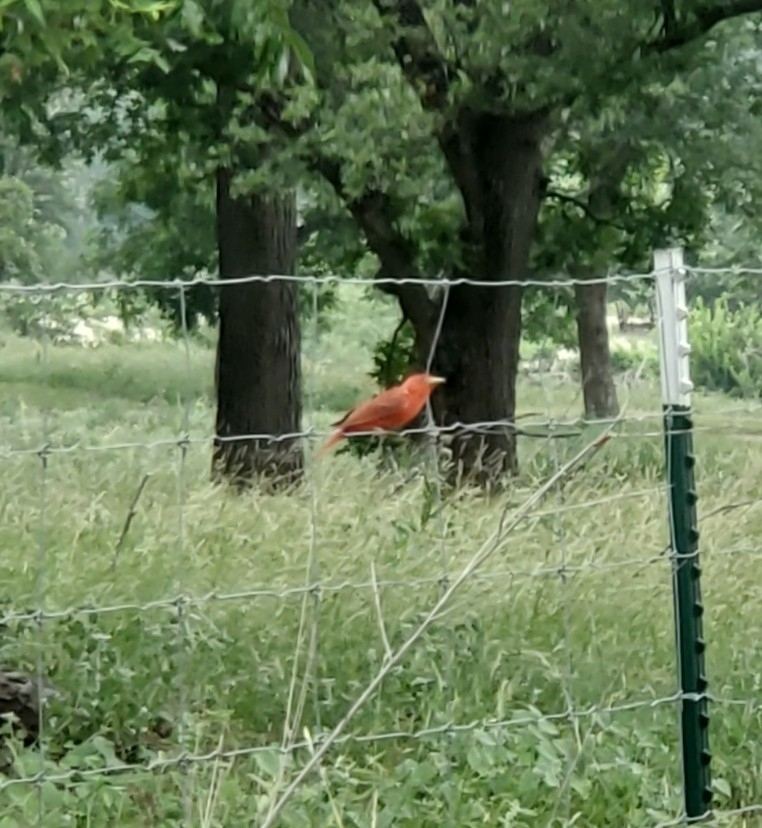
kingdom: Animalia
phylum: Chordata
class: Aves
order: Passeriformes
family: Cardinalidae
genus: Piranga
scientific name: Piranga rubra
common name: Summer tanager
